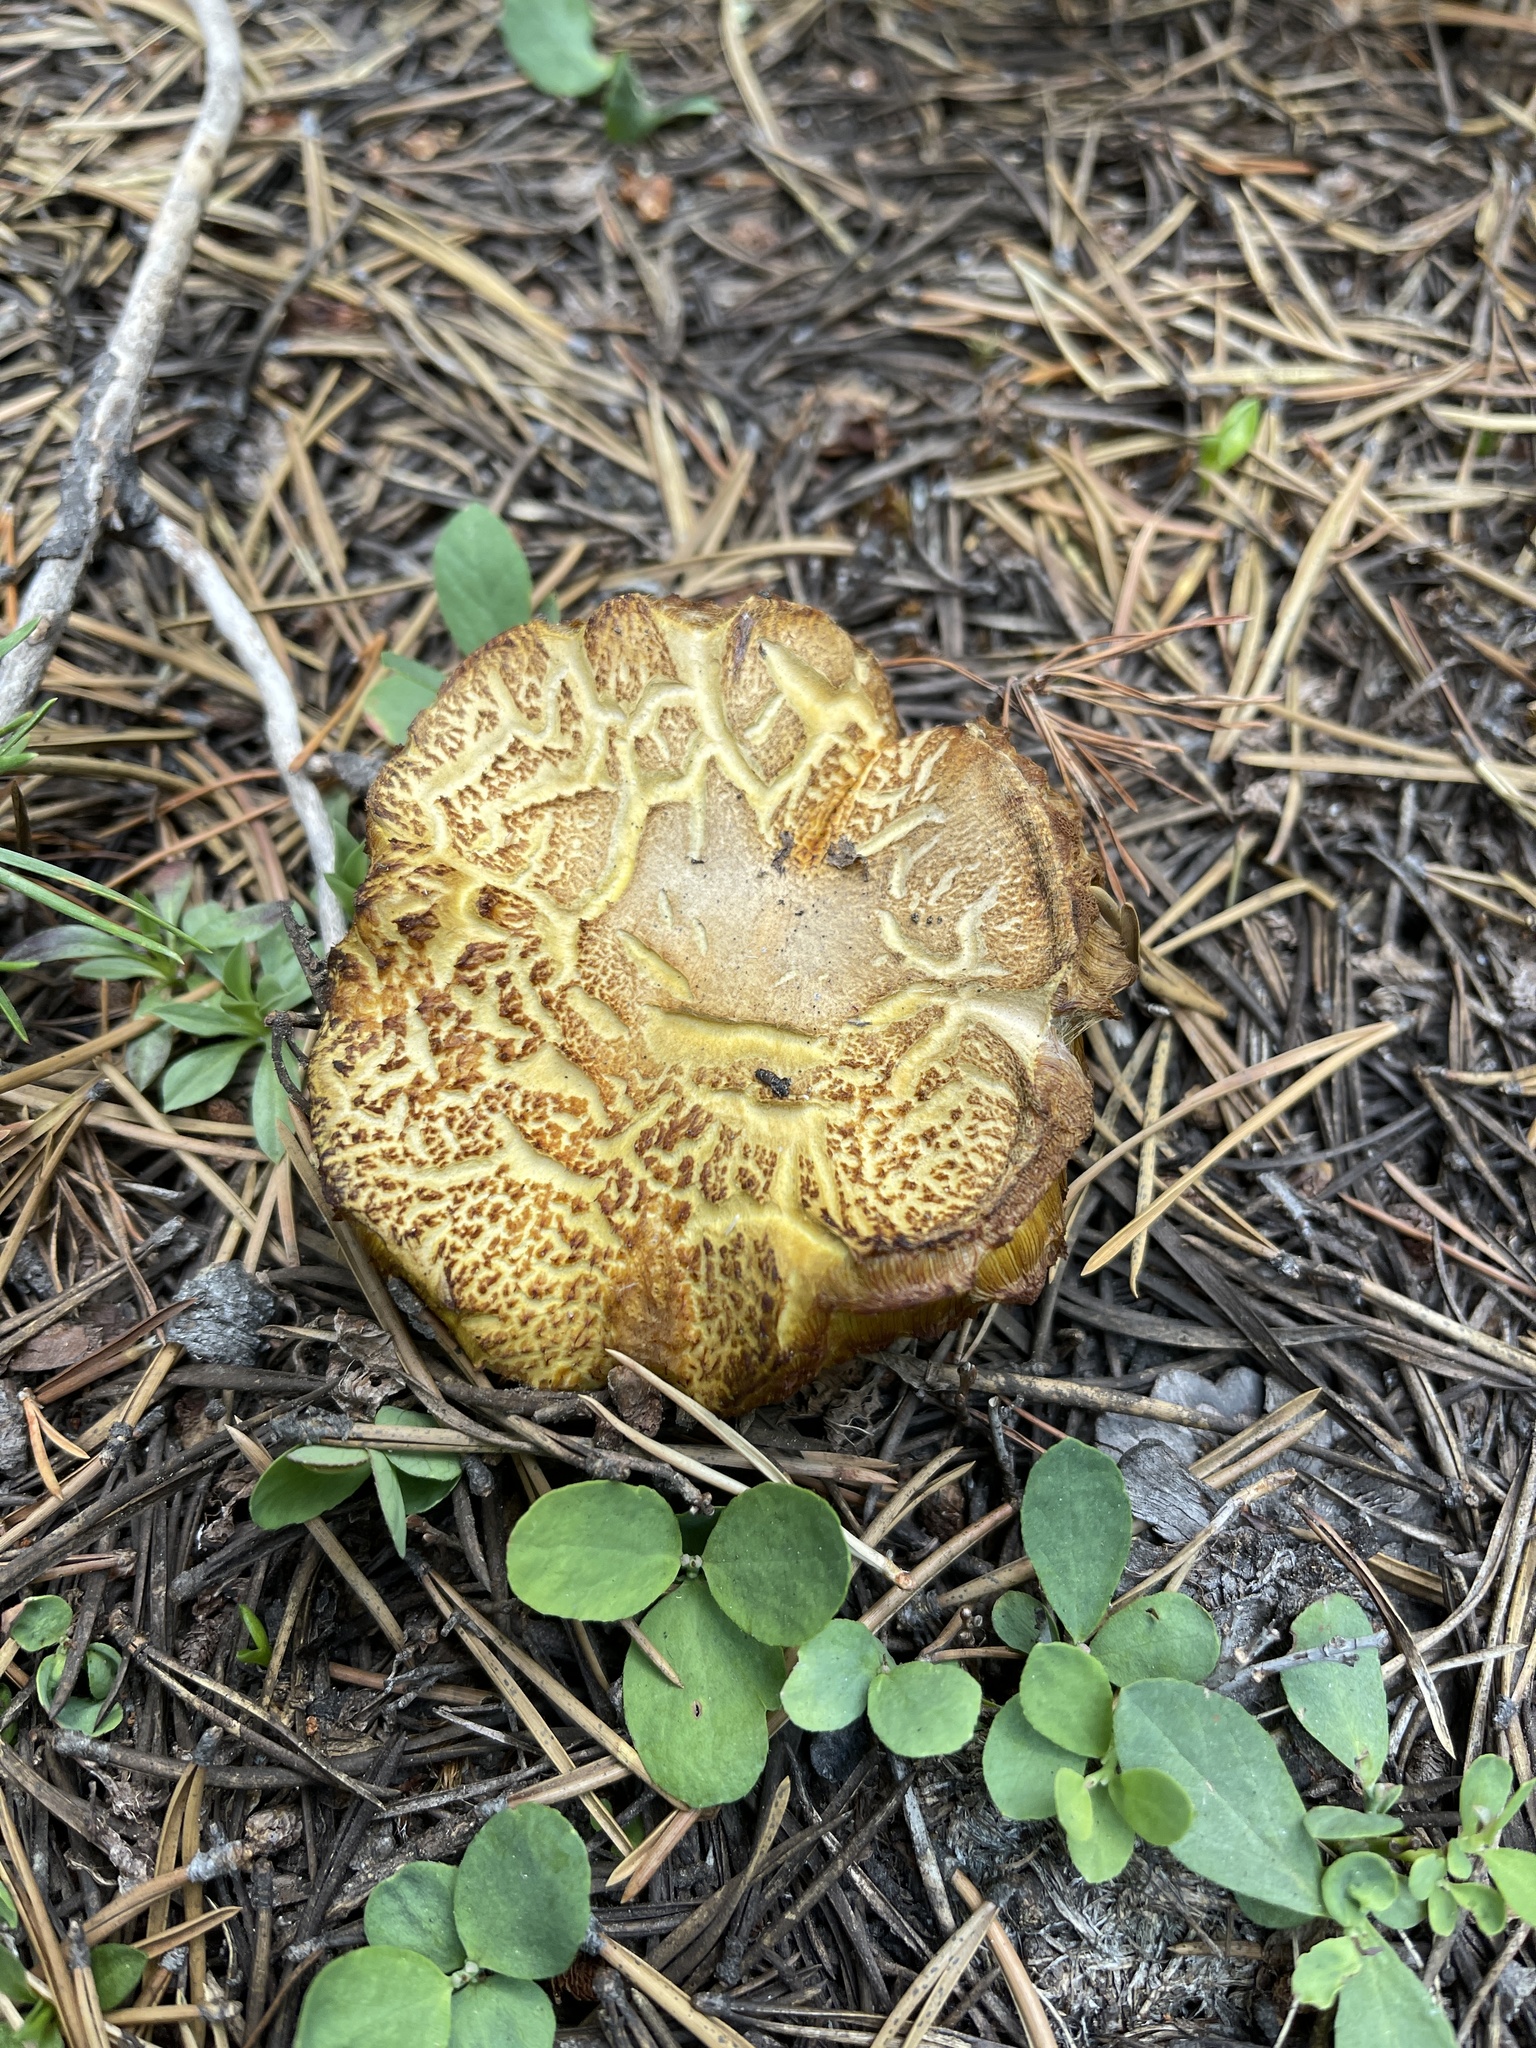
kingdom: Fungi
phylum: Basidiomycota
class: Agaricomycetes
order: Boletales
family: Boletaceae
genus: Boletus
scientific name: Boletus edulis
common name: Cep
